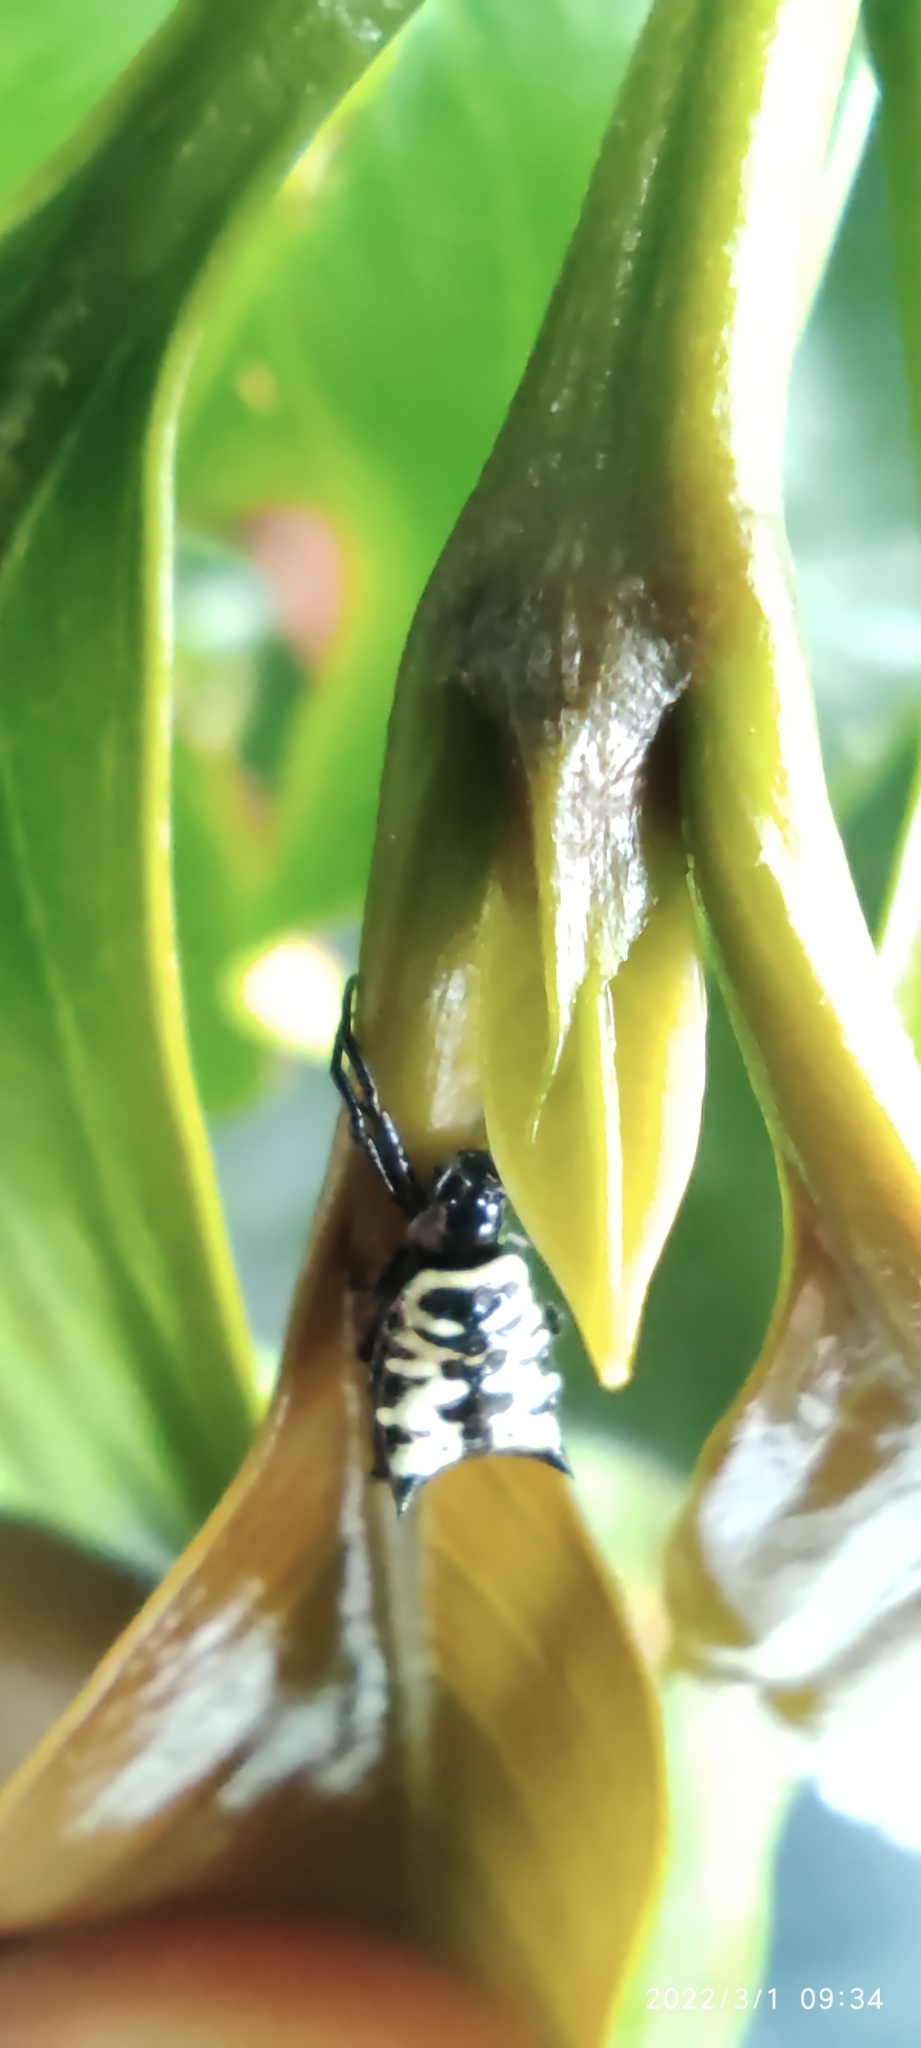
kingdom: Animalia
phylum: Arthropoda
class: Arachnida
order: Araneae
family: Araneidae
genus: Micrathena
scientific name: Micrathena saccata
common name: Orb weavers
